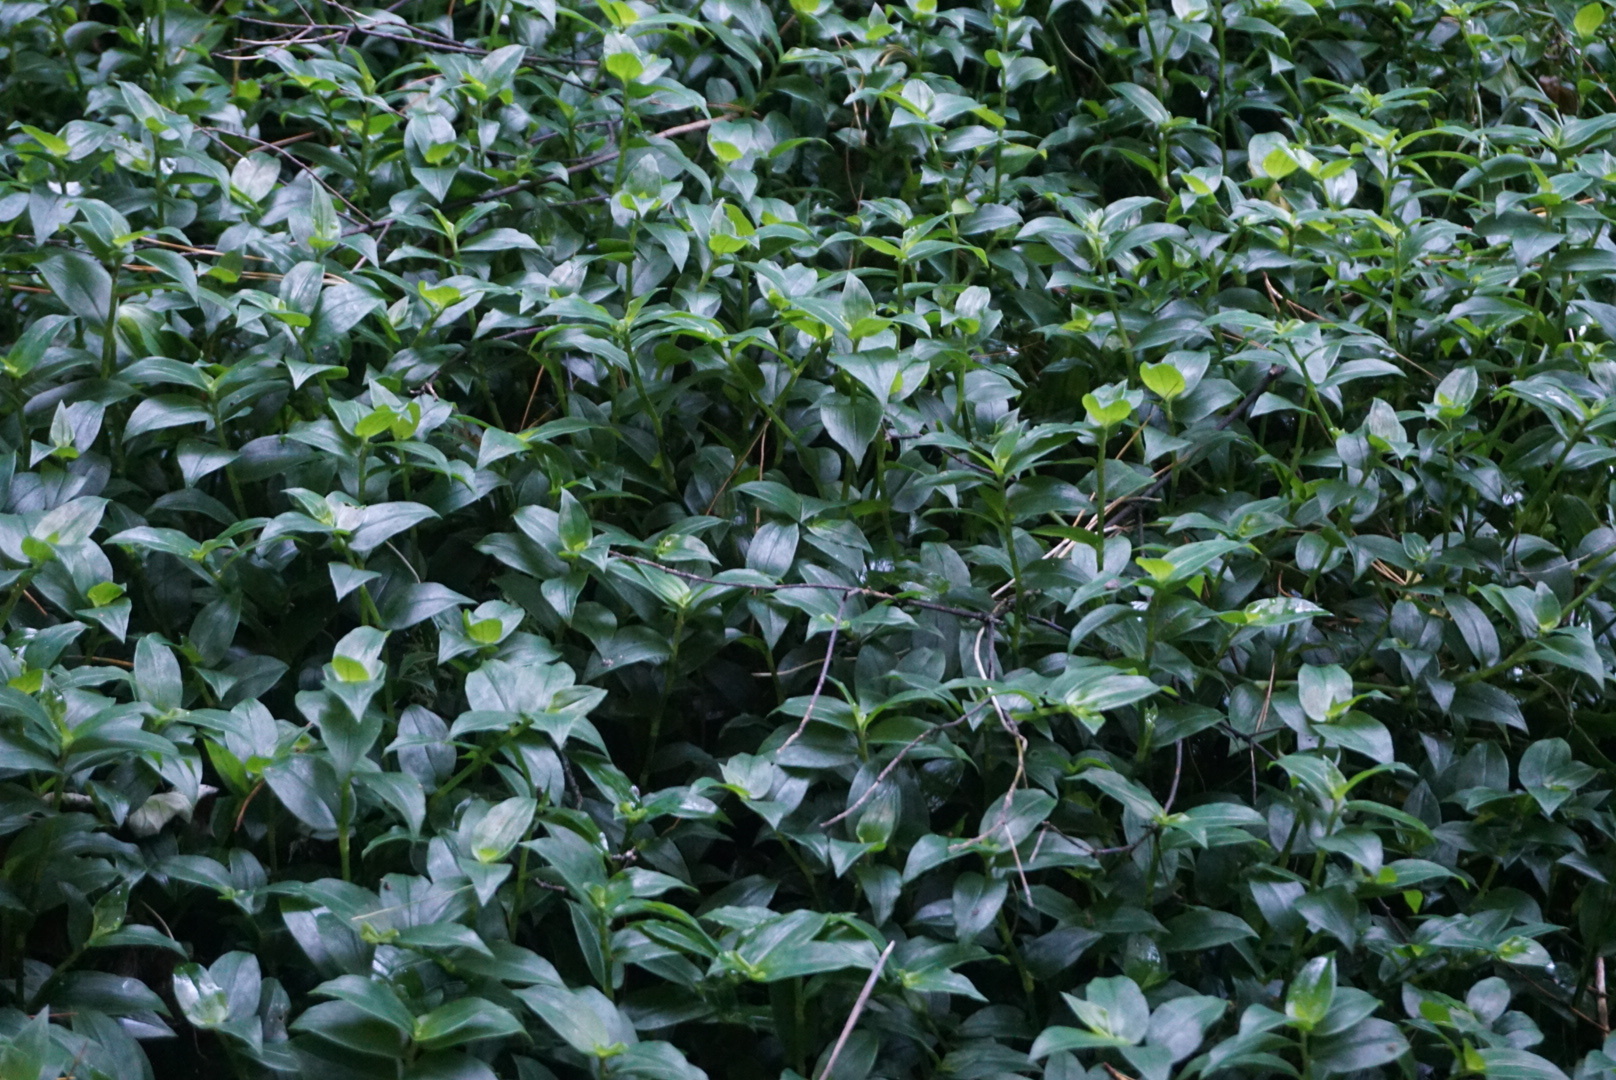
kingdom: Plantae
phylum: Tracheophyta
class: Liliopsida
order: Commelinales
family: Commelinaceae
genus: Tradescantia
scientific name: Tradescantia fluminensis
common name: Wandering-jew
